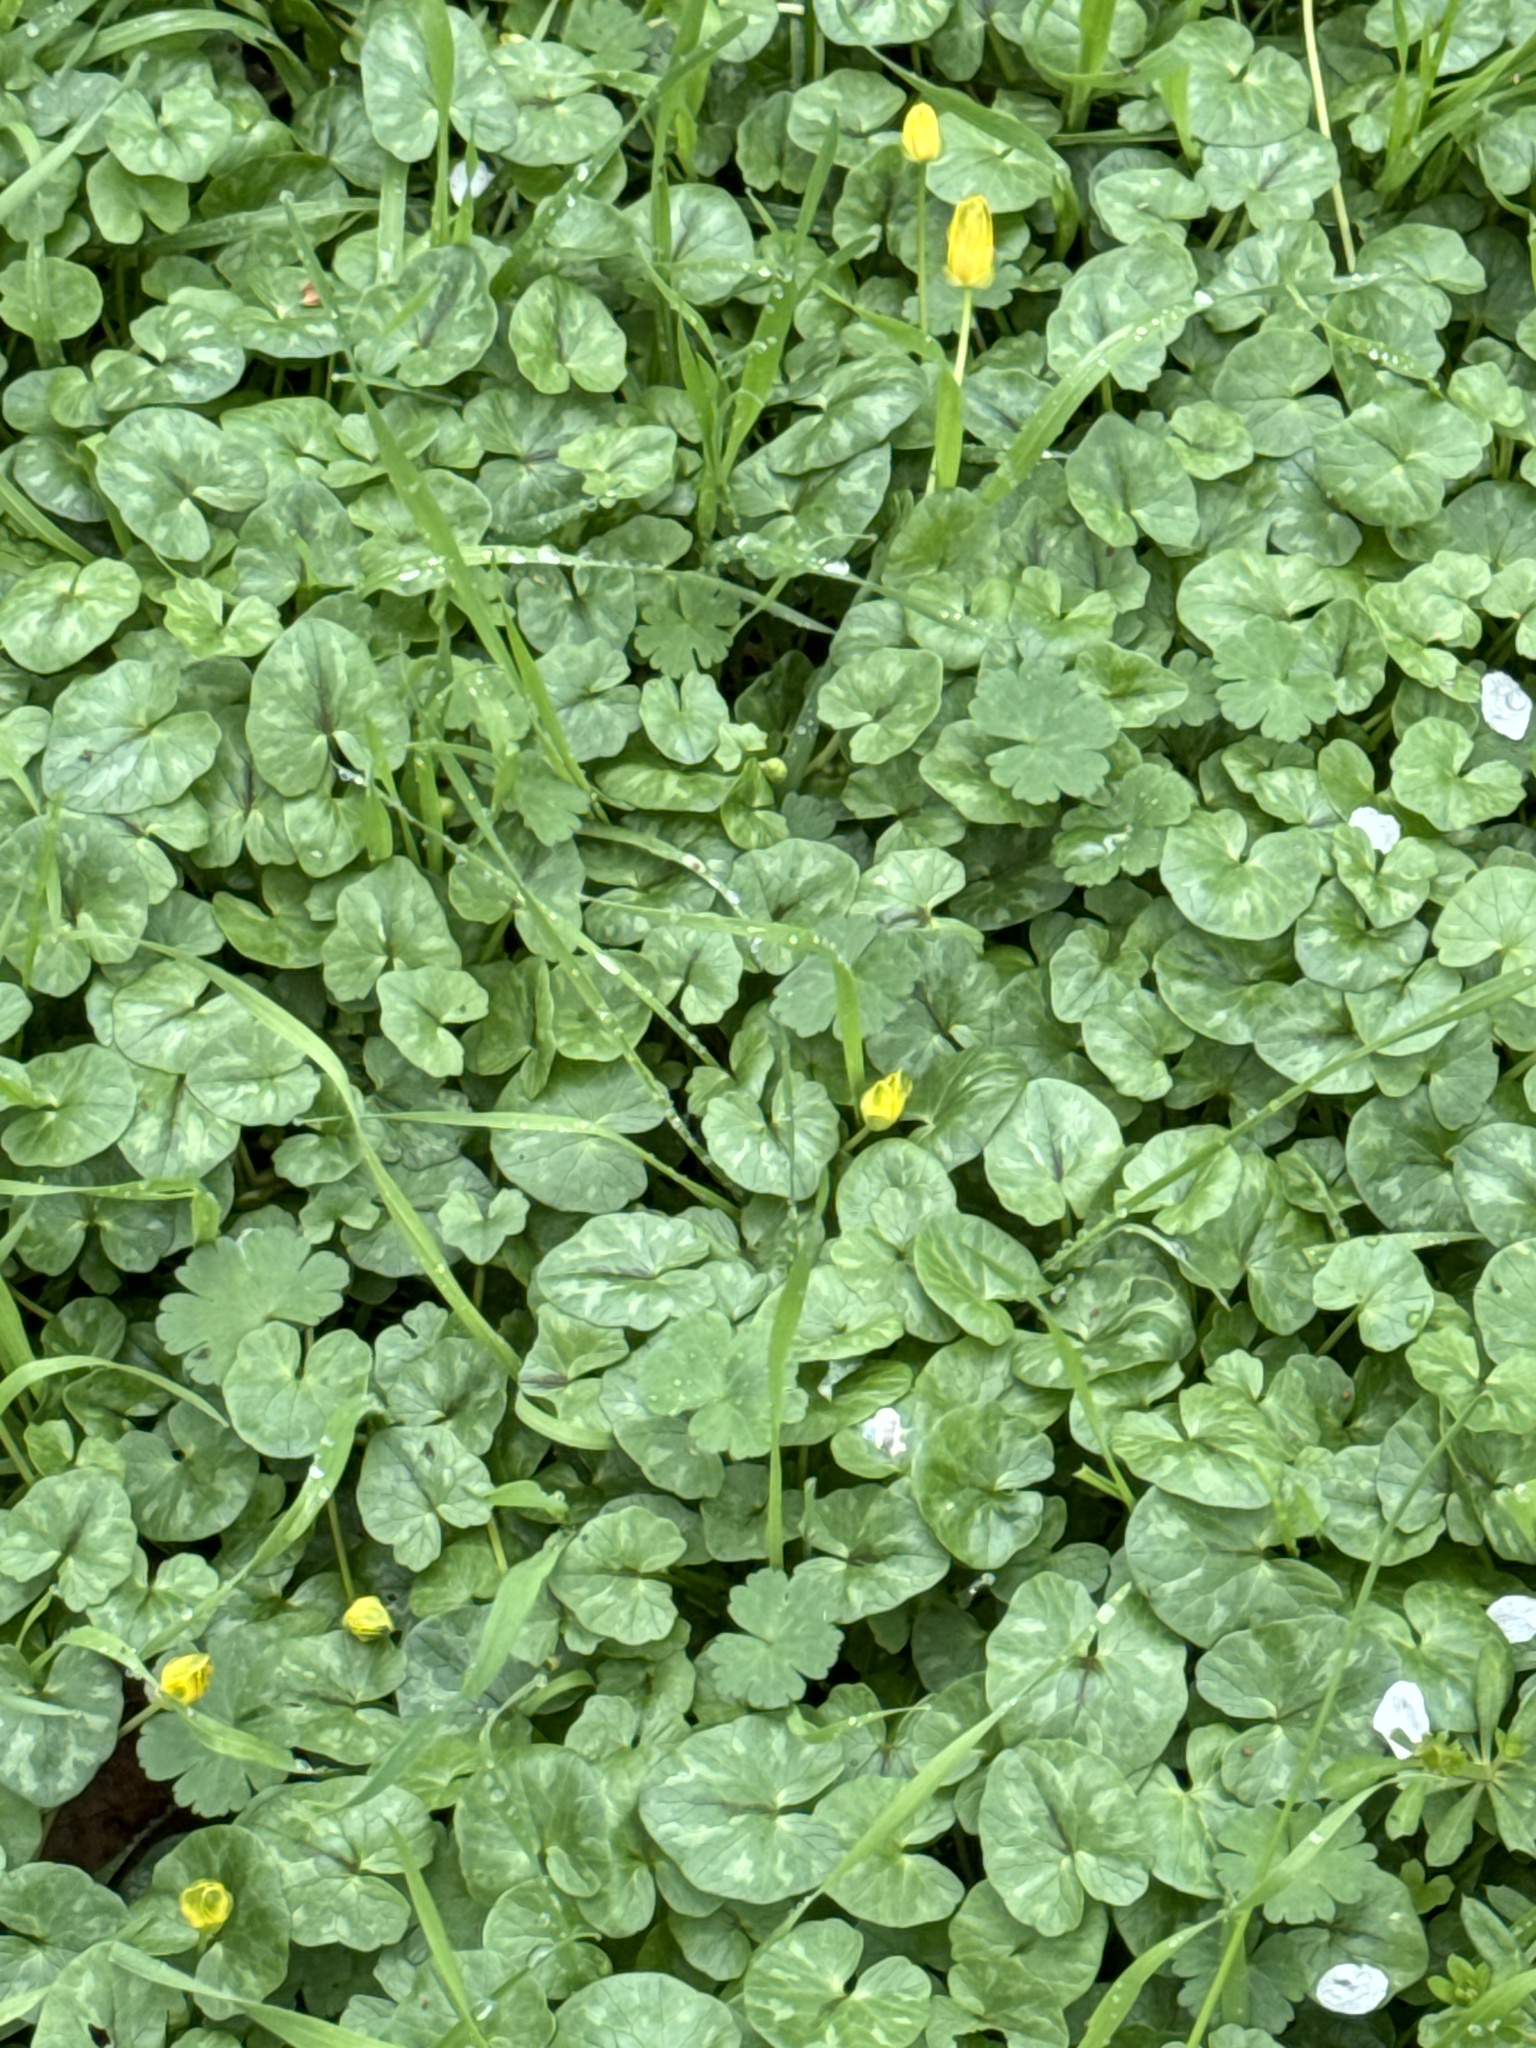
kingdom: Plantae
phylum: Tracheophyta
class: Magnoliopsida
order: Ranunculales
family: Ranunculaceae
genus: Ficaria
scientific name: Ficaria verna
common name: Lesser celandine
